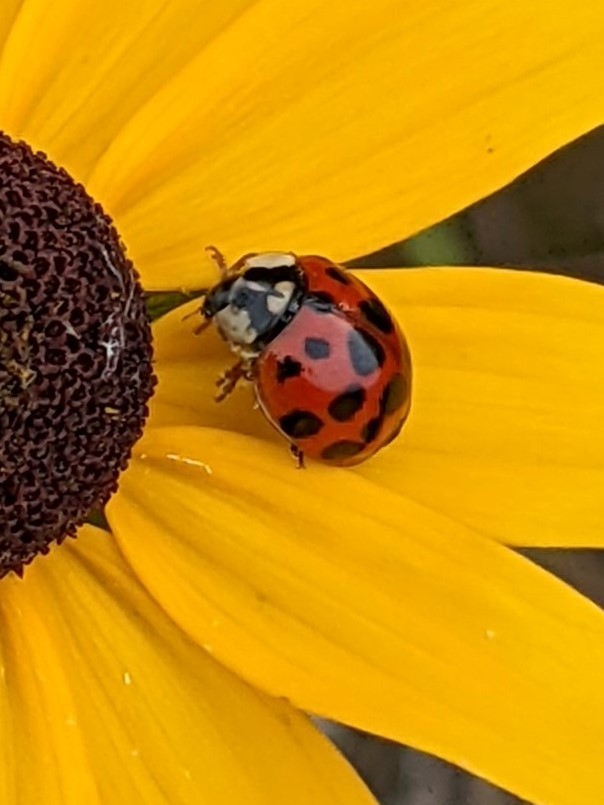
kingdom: Animalia
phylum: Arthropoda
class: Insecta
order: Coleoptera
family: Coccinellidae
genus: Harmonia
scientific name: Harmonia axyridis
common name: Harlequin ladybird
